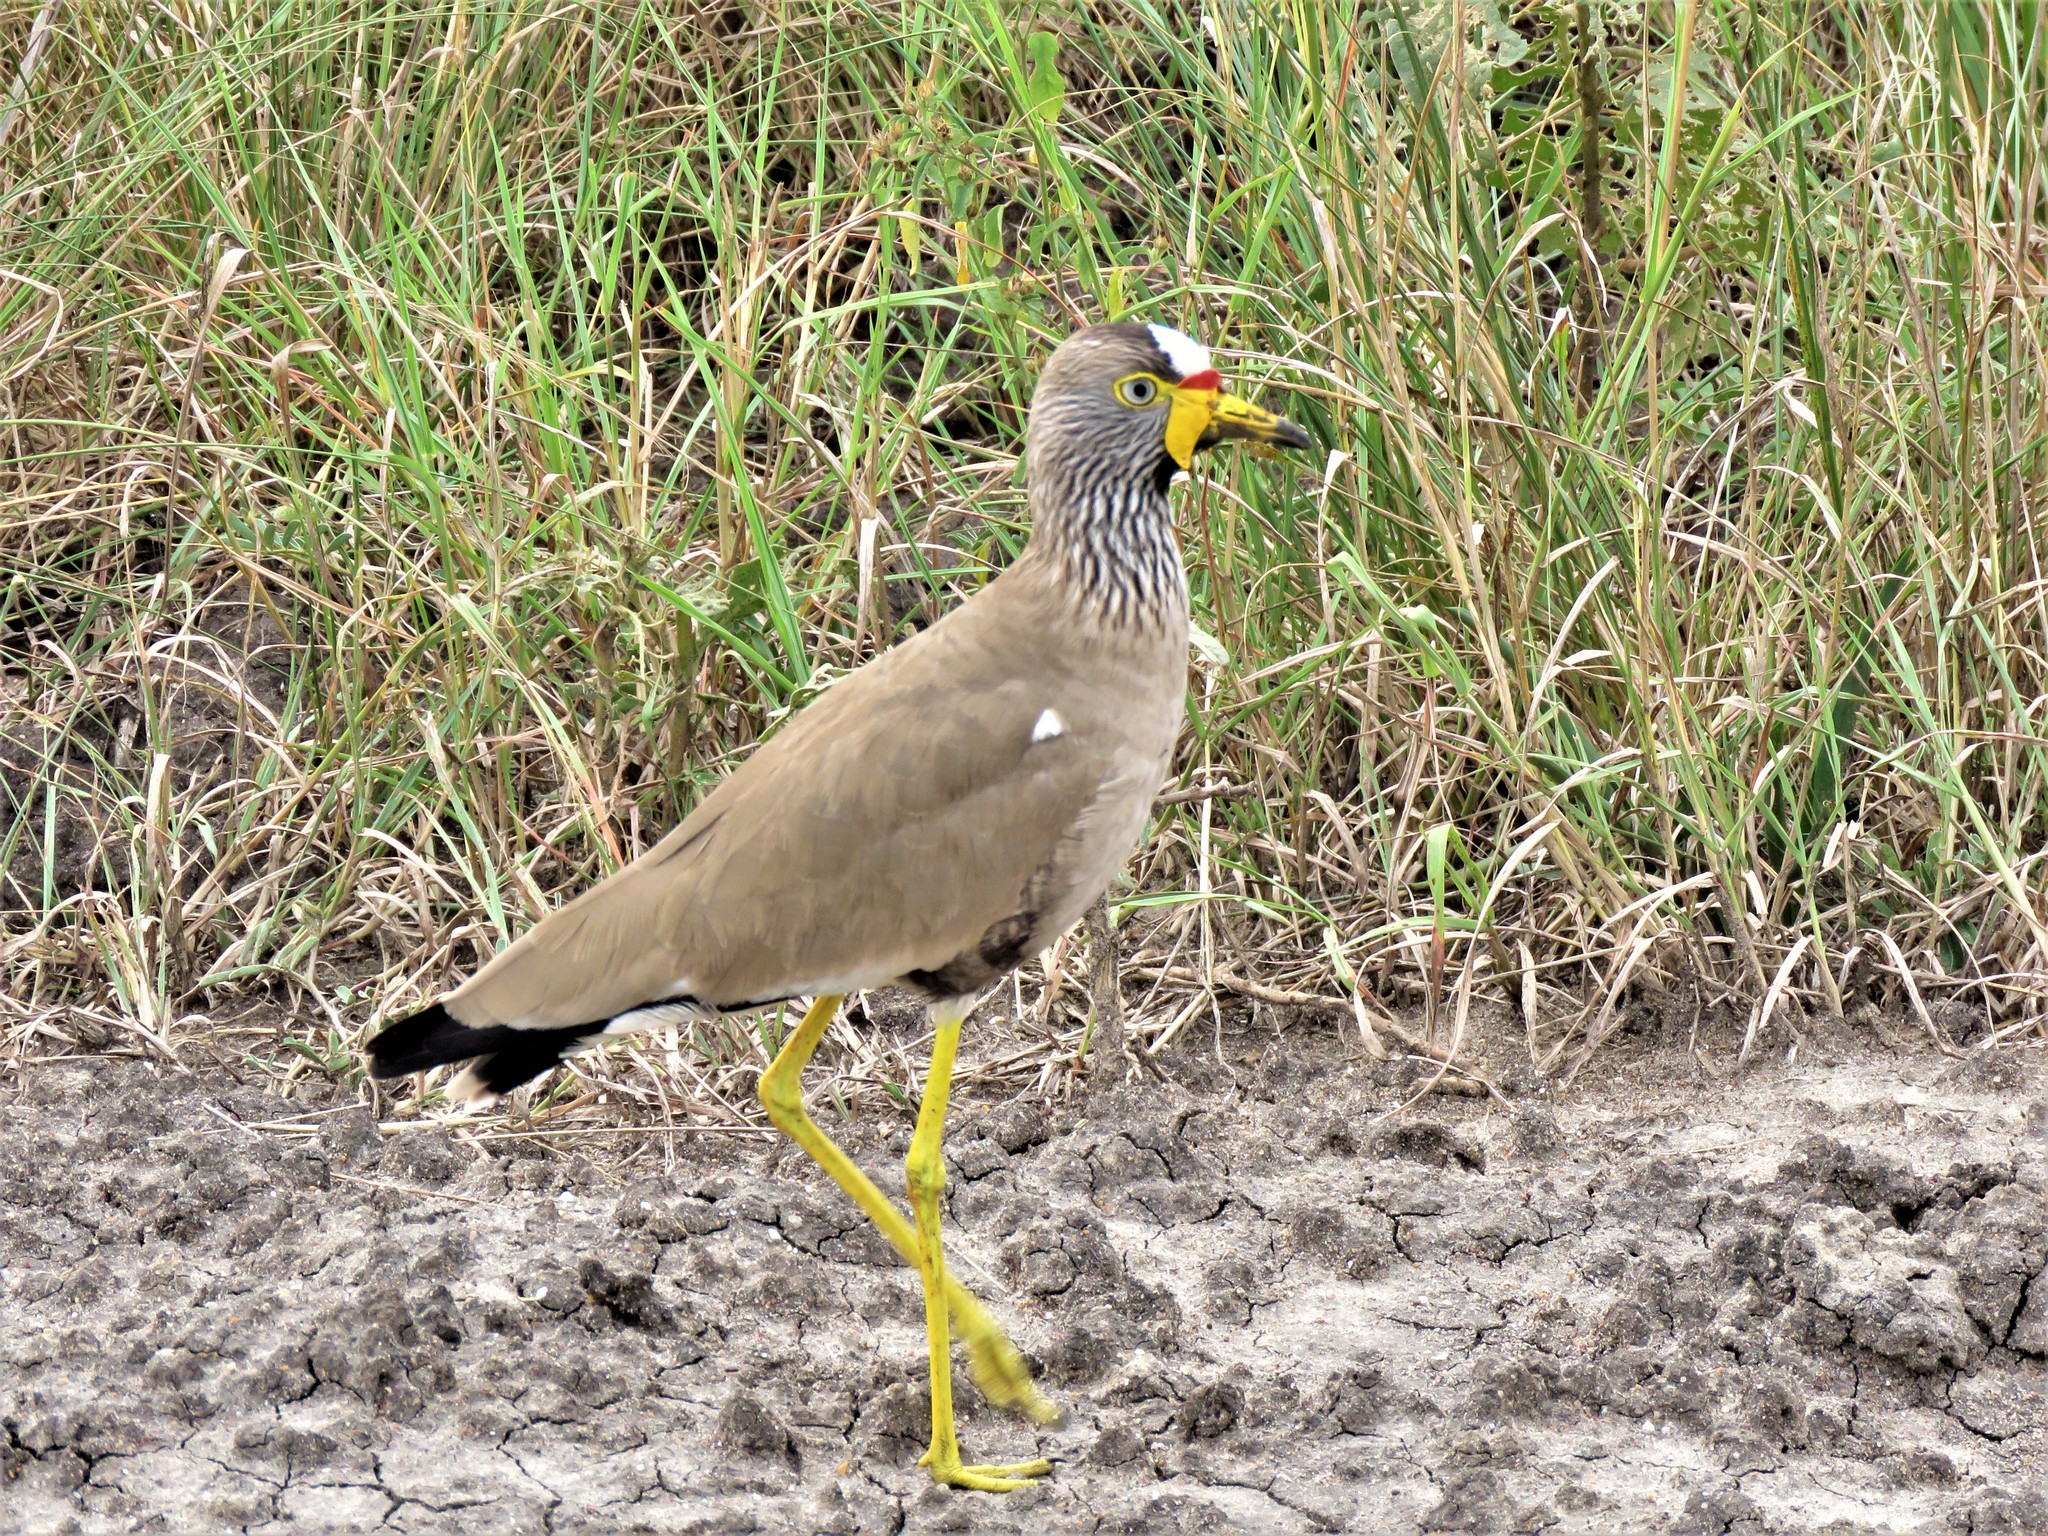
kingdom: Animalia
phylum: Chordata
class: Aves
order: Charadriiformes
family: Charadriidae
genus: Vanellus
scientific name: Vanellus senegallus
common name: African wattled lapwing
